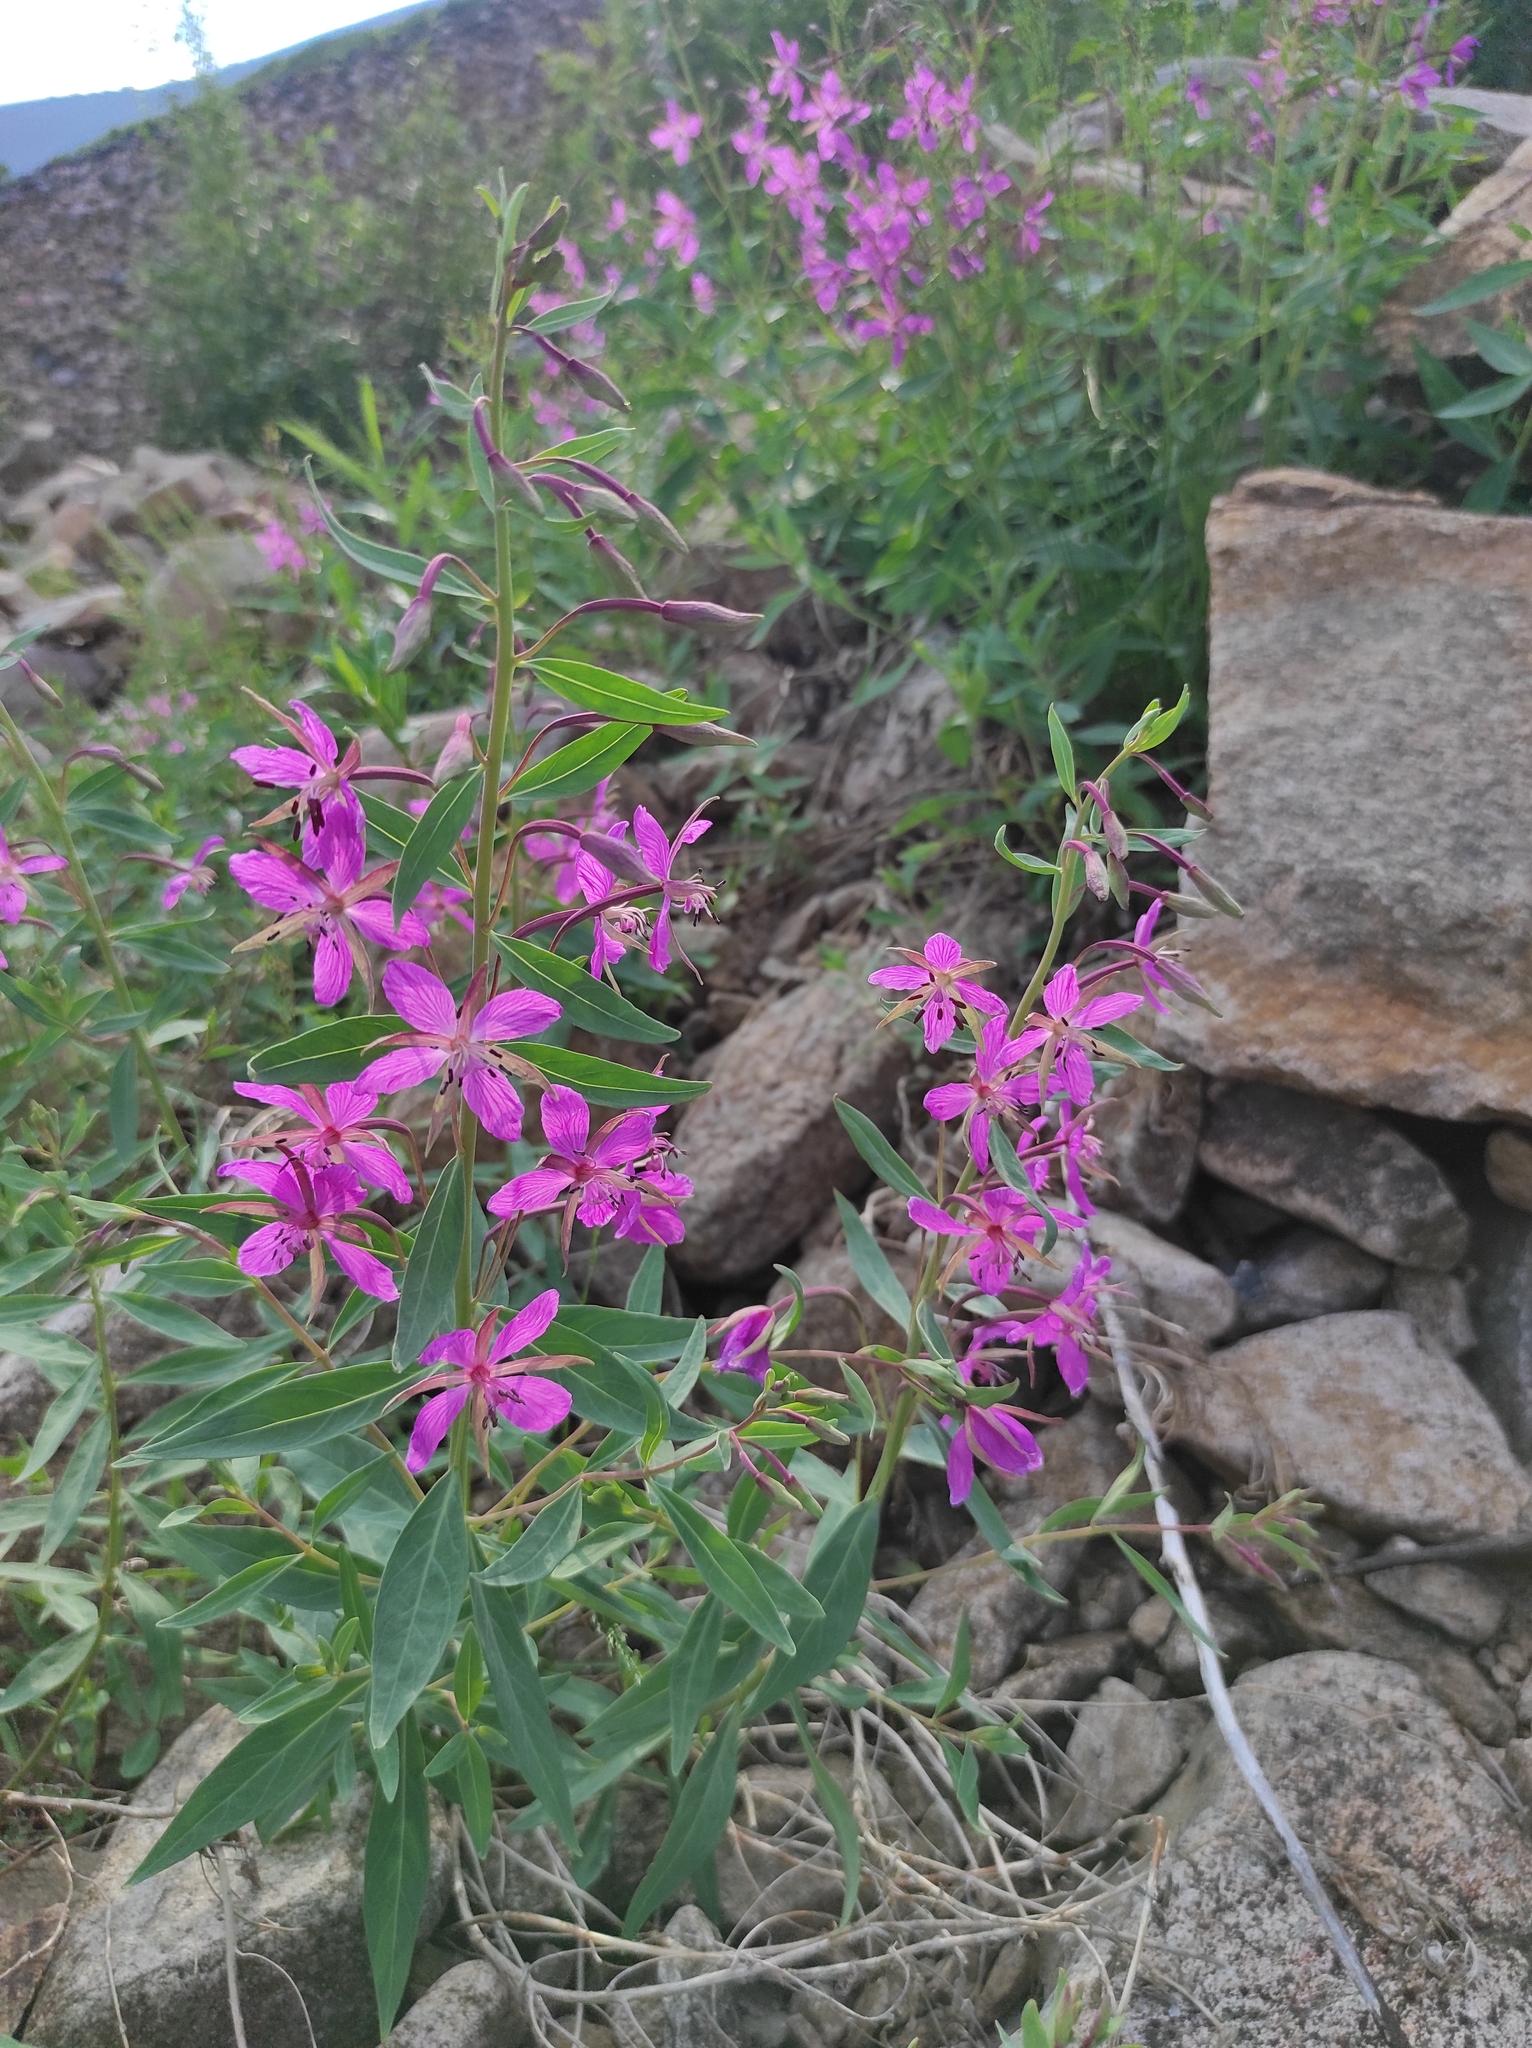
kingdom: Plantae
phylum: Tracheophyta
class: Magnoliopsida
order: Myrtales
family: Onagraceae
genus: Chamaenerion
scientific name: Chamaenerion latifolium
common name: Dwarf fireweed
